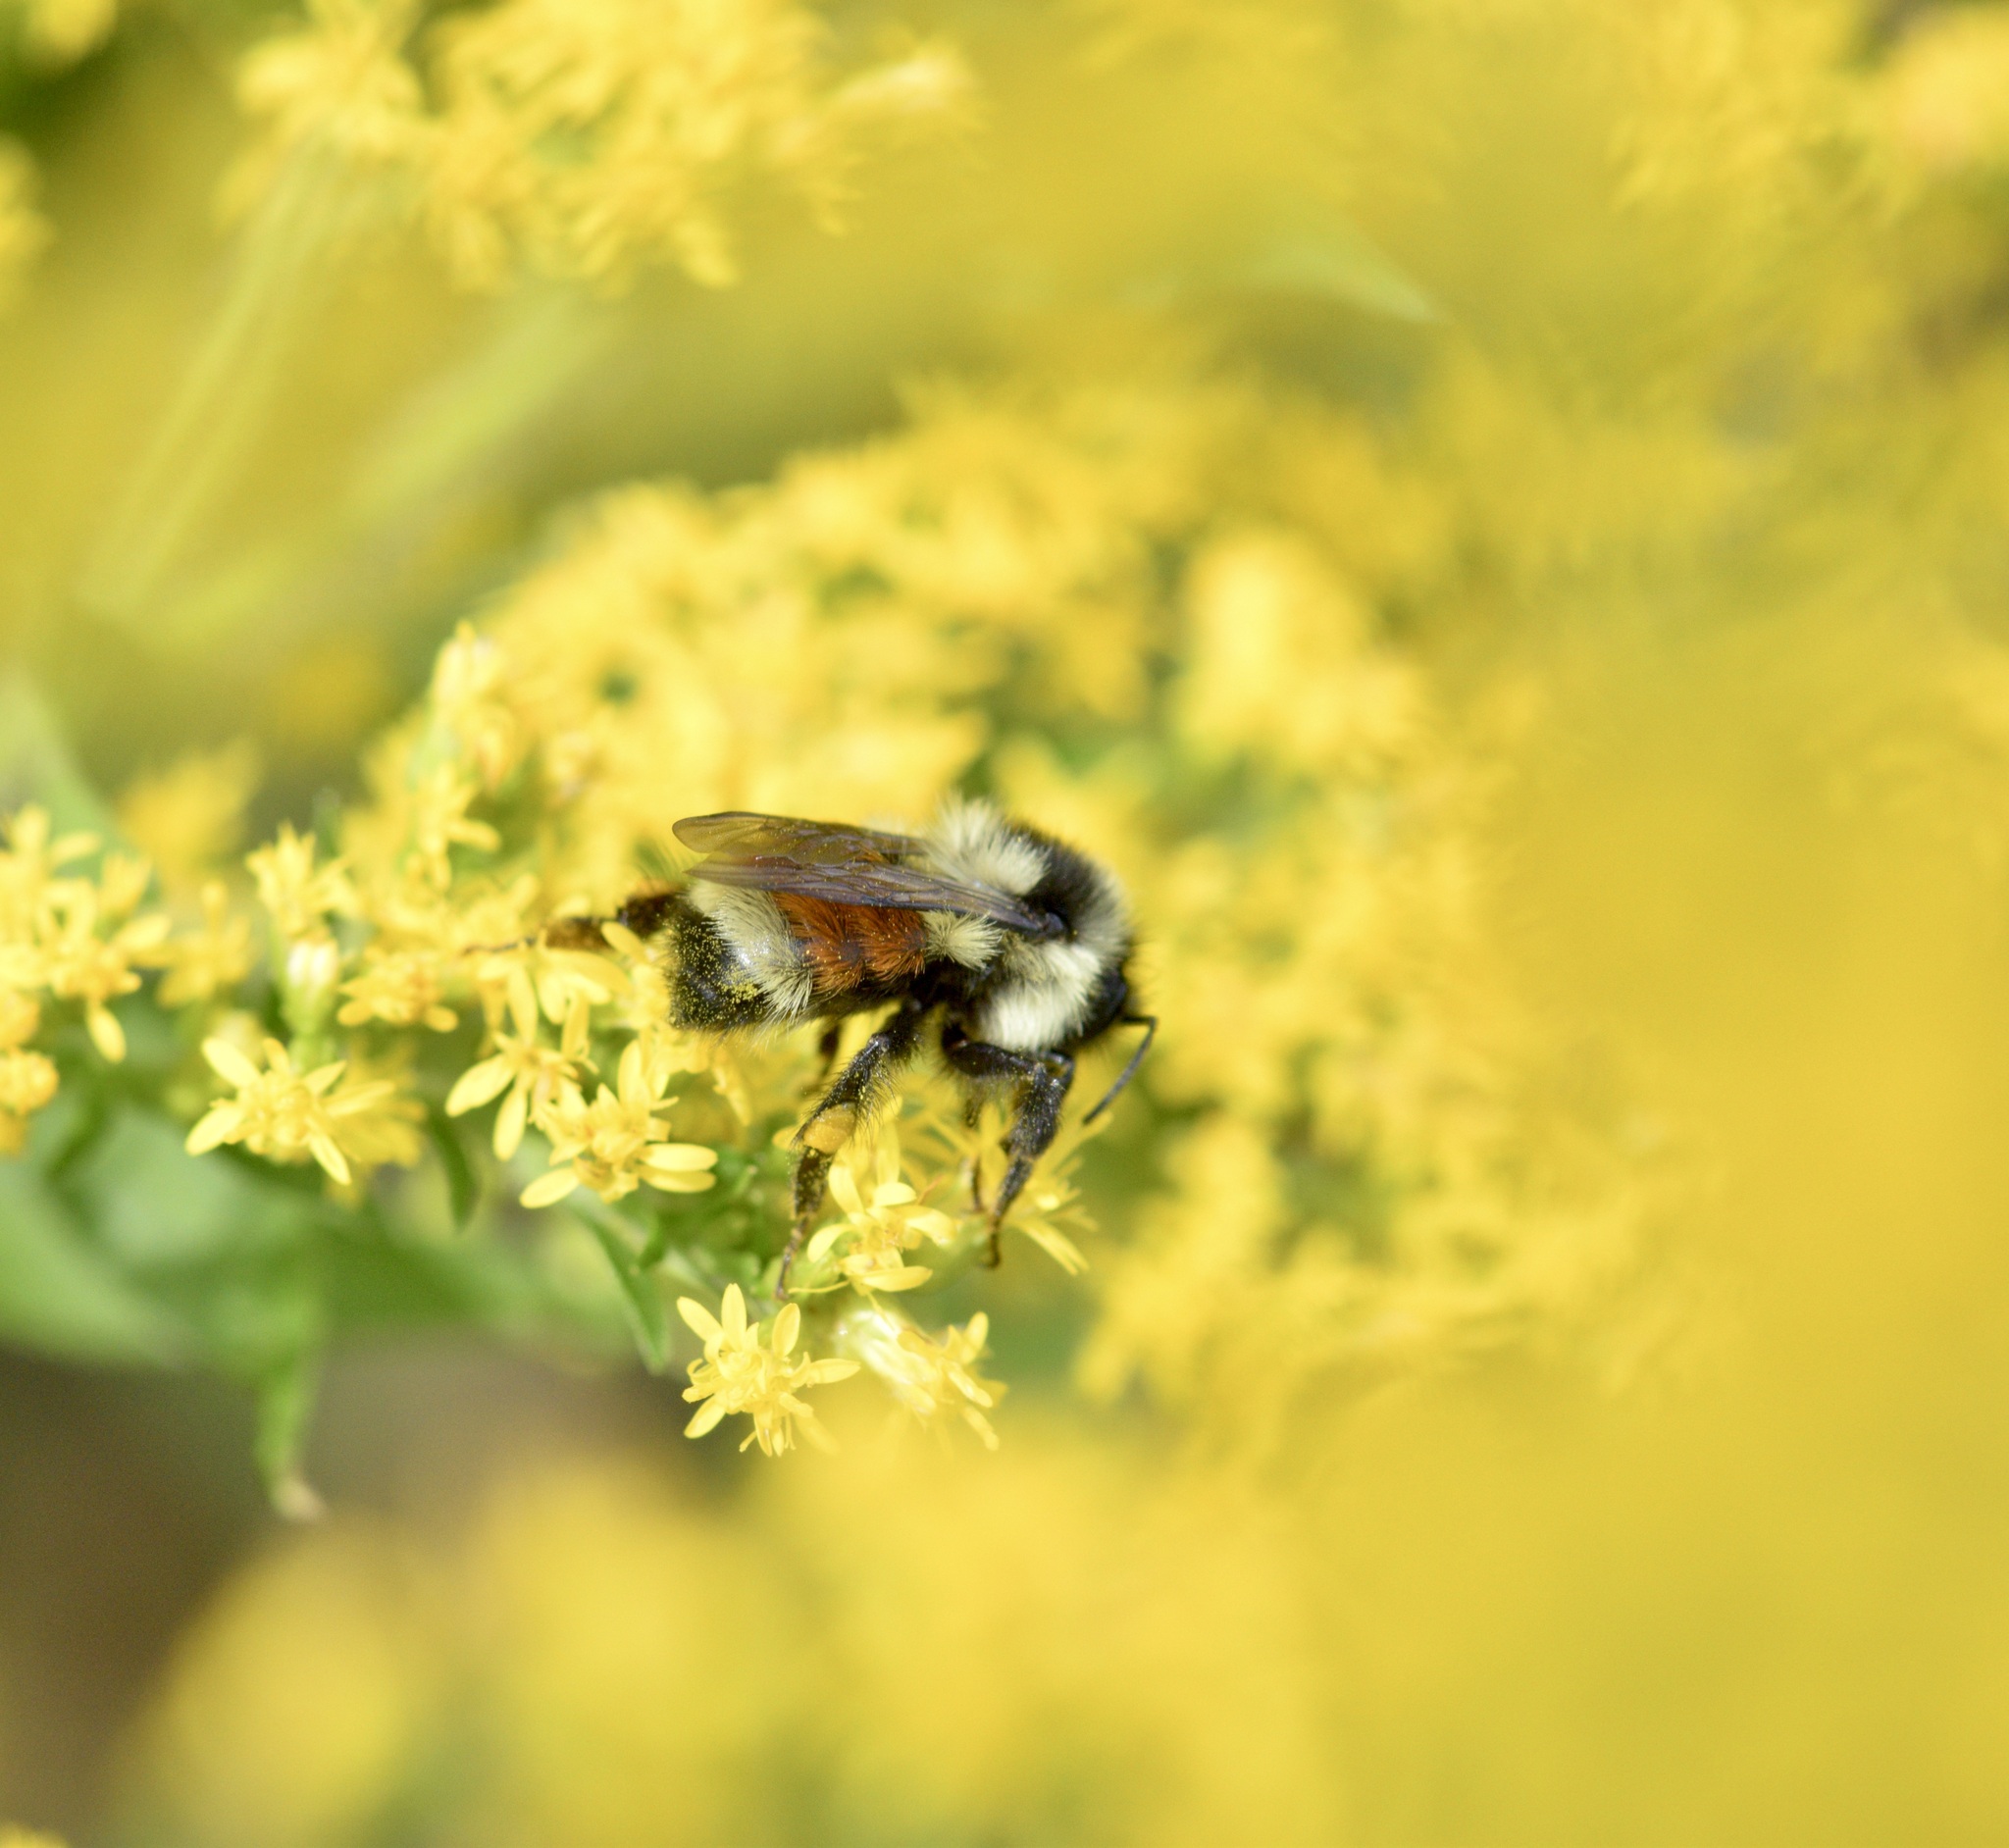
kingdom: Animalia
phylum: Arthropoda
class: Insecta
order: Hymenoptera
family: Apidae
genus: Bombus
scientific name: Bombus ternarius
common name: Tri-colored bumble bee
